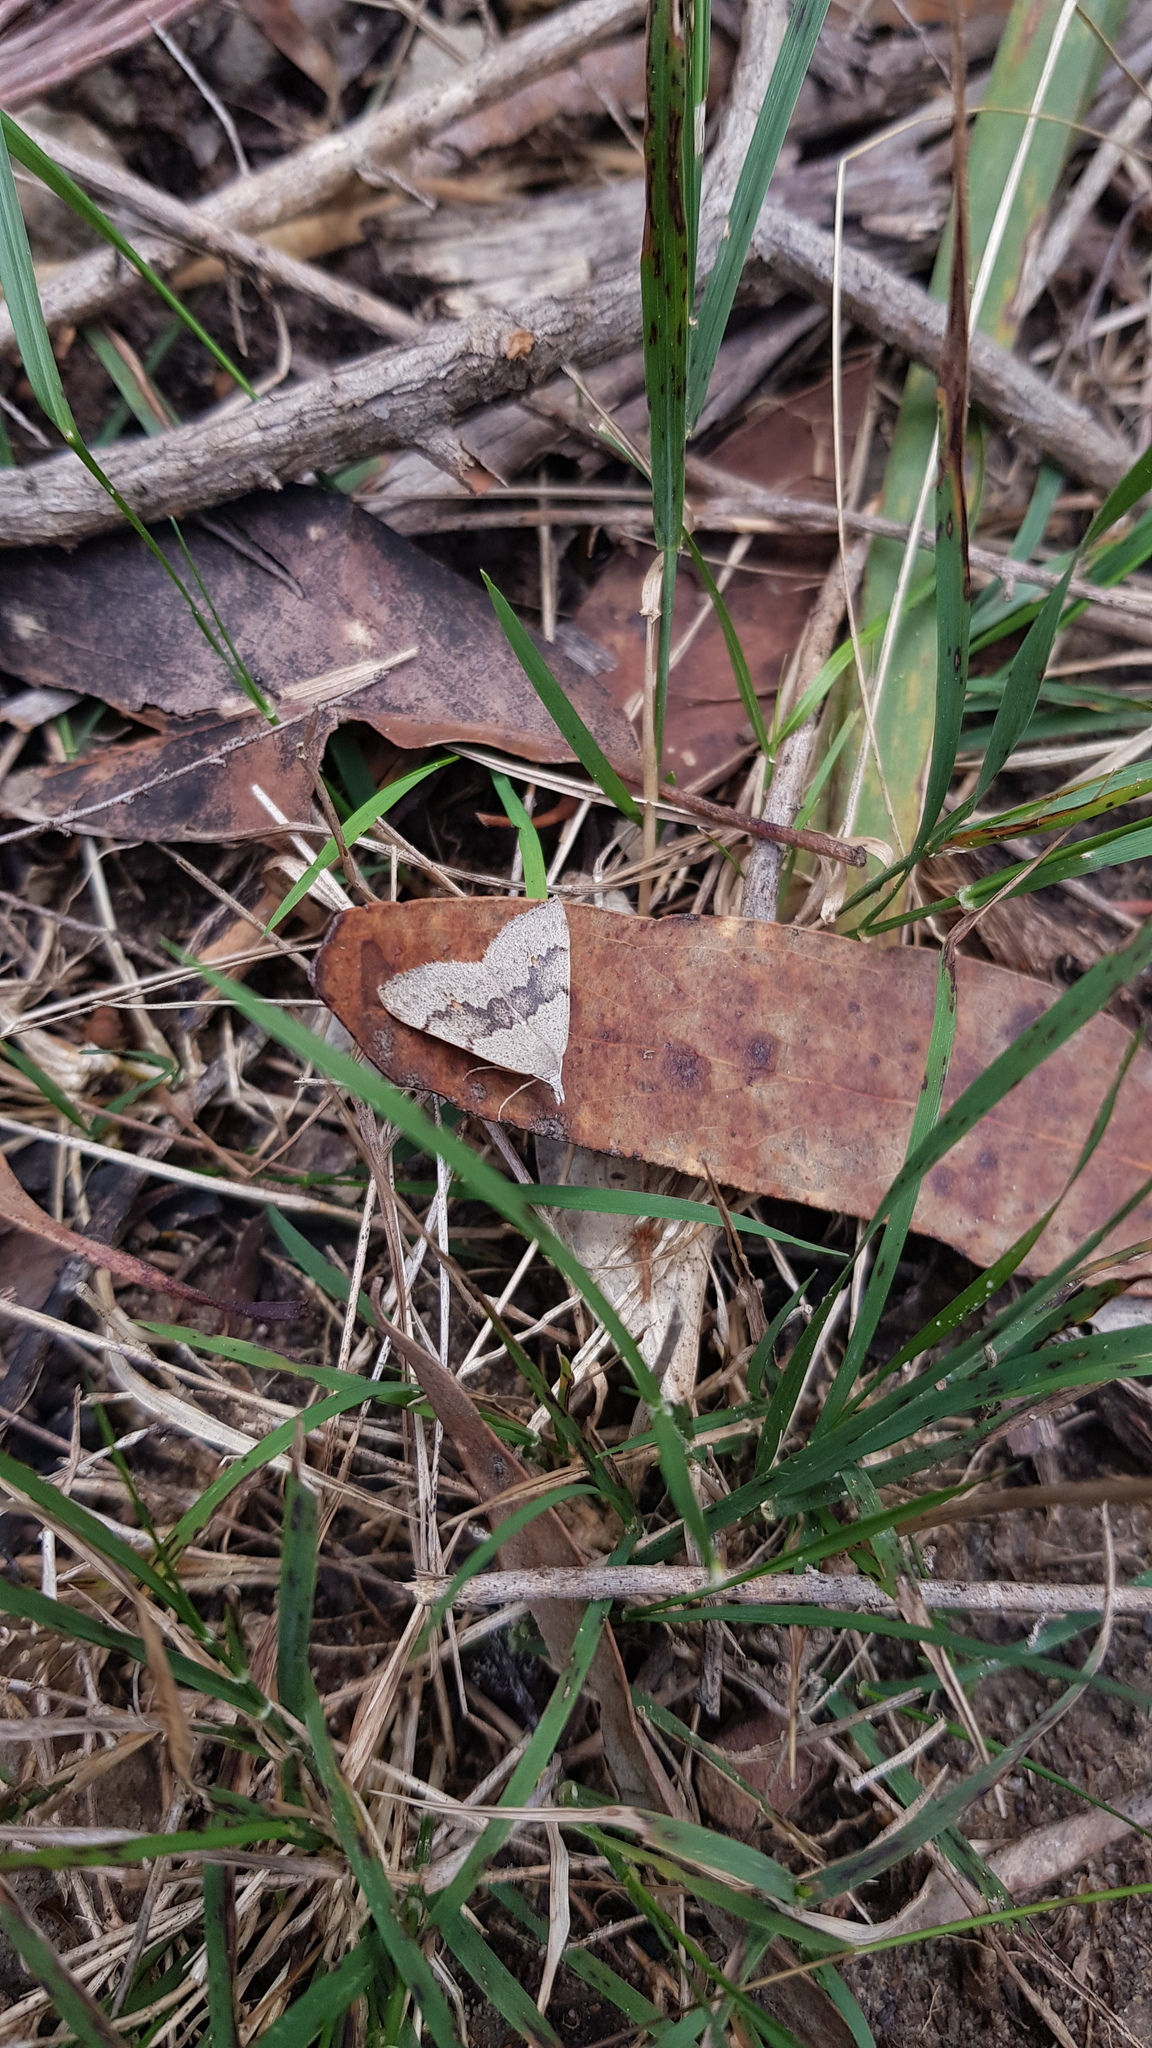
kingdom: Animalia
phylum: Arthropoda
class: Insecta
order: Lepidoptera
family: Geometridae
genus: Dichromodes
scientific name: Dichromodes molybdaria
